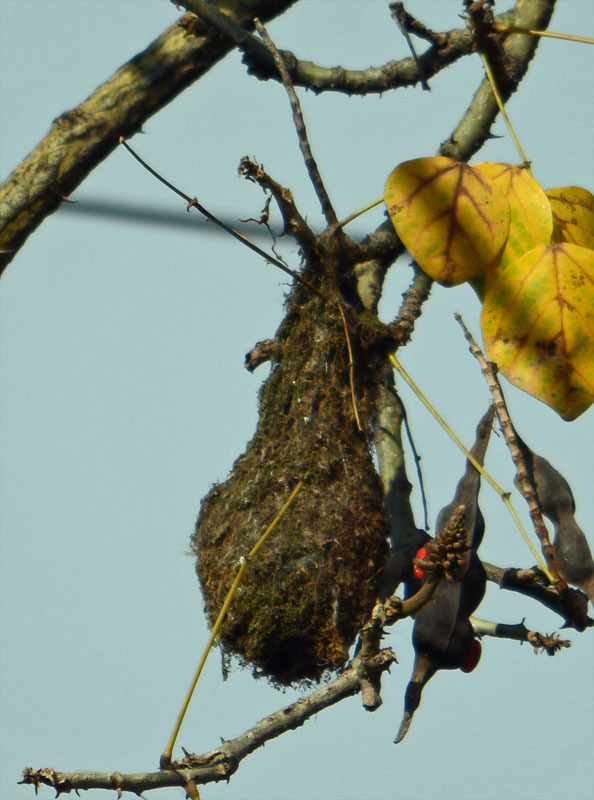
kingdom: Animalia
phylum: Chordata
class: Aves
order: Passeriformes
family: Aegithalidae
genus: Psaltriparus
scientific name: Psaltriparus minimus
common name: American bushtit
